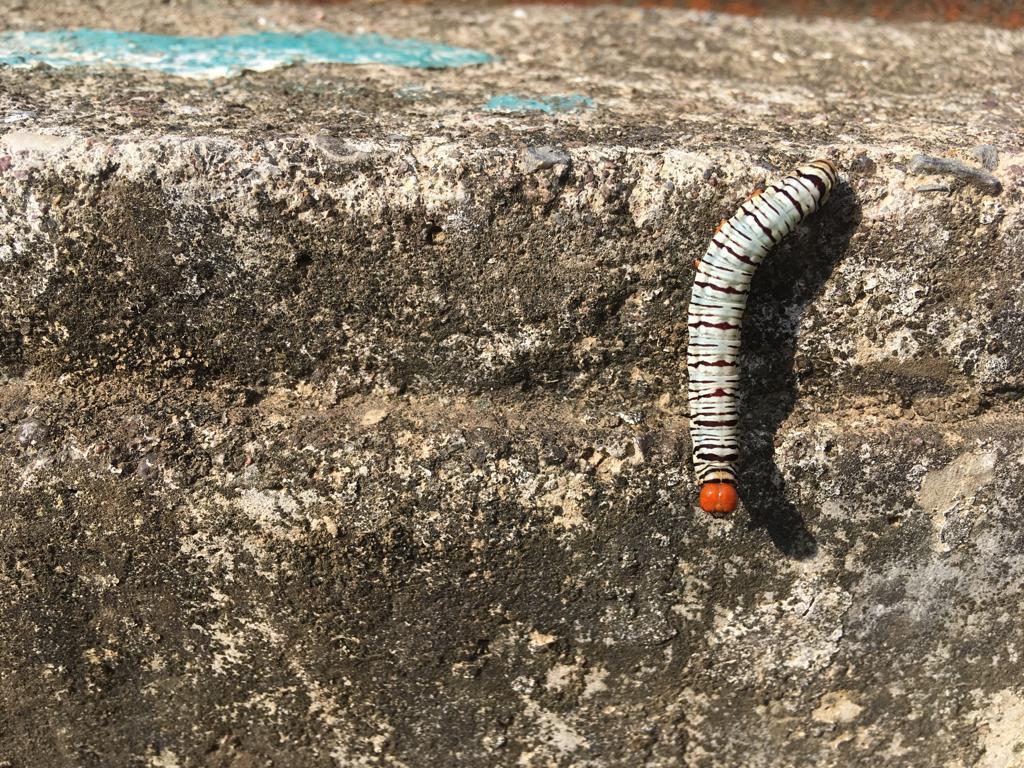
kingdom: Animalia
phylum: Arthropoda
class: Insecta
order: Lepidoptera
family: Erebidae
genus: Diphthera
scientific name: Diphthera festiva
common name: Hieroglyphic moth
